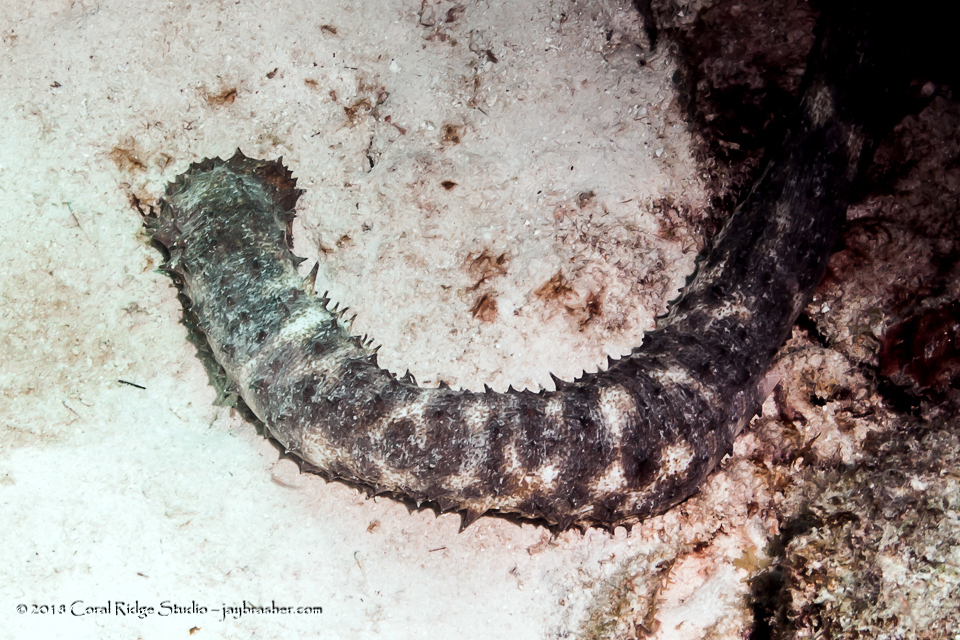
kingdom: Animalia
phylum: Echinodermata
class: Holothuroidea
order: Holothuriida
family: Holothuriidae
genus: Holothuria
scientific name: Holothuria thomasi
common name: Tiger tail sea cocumber
